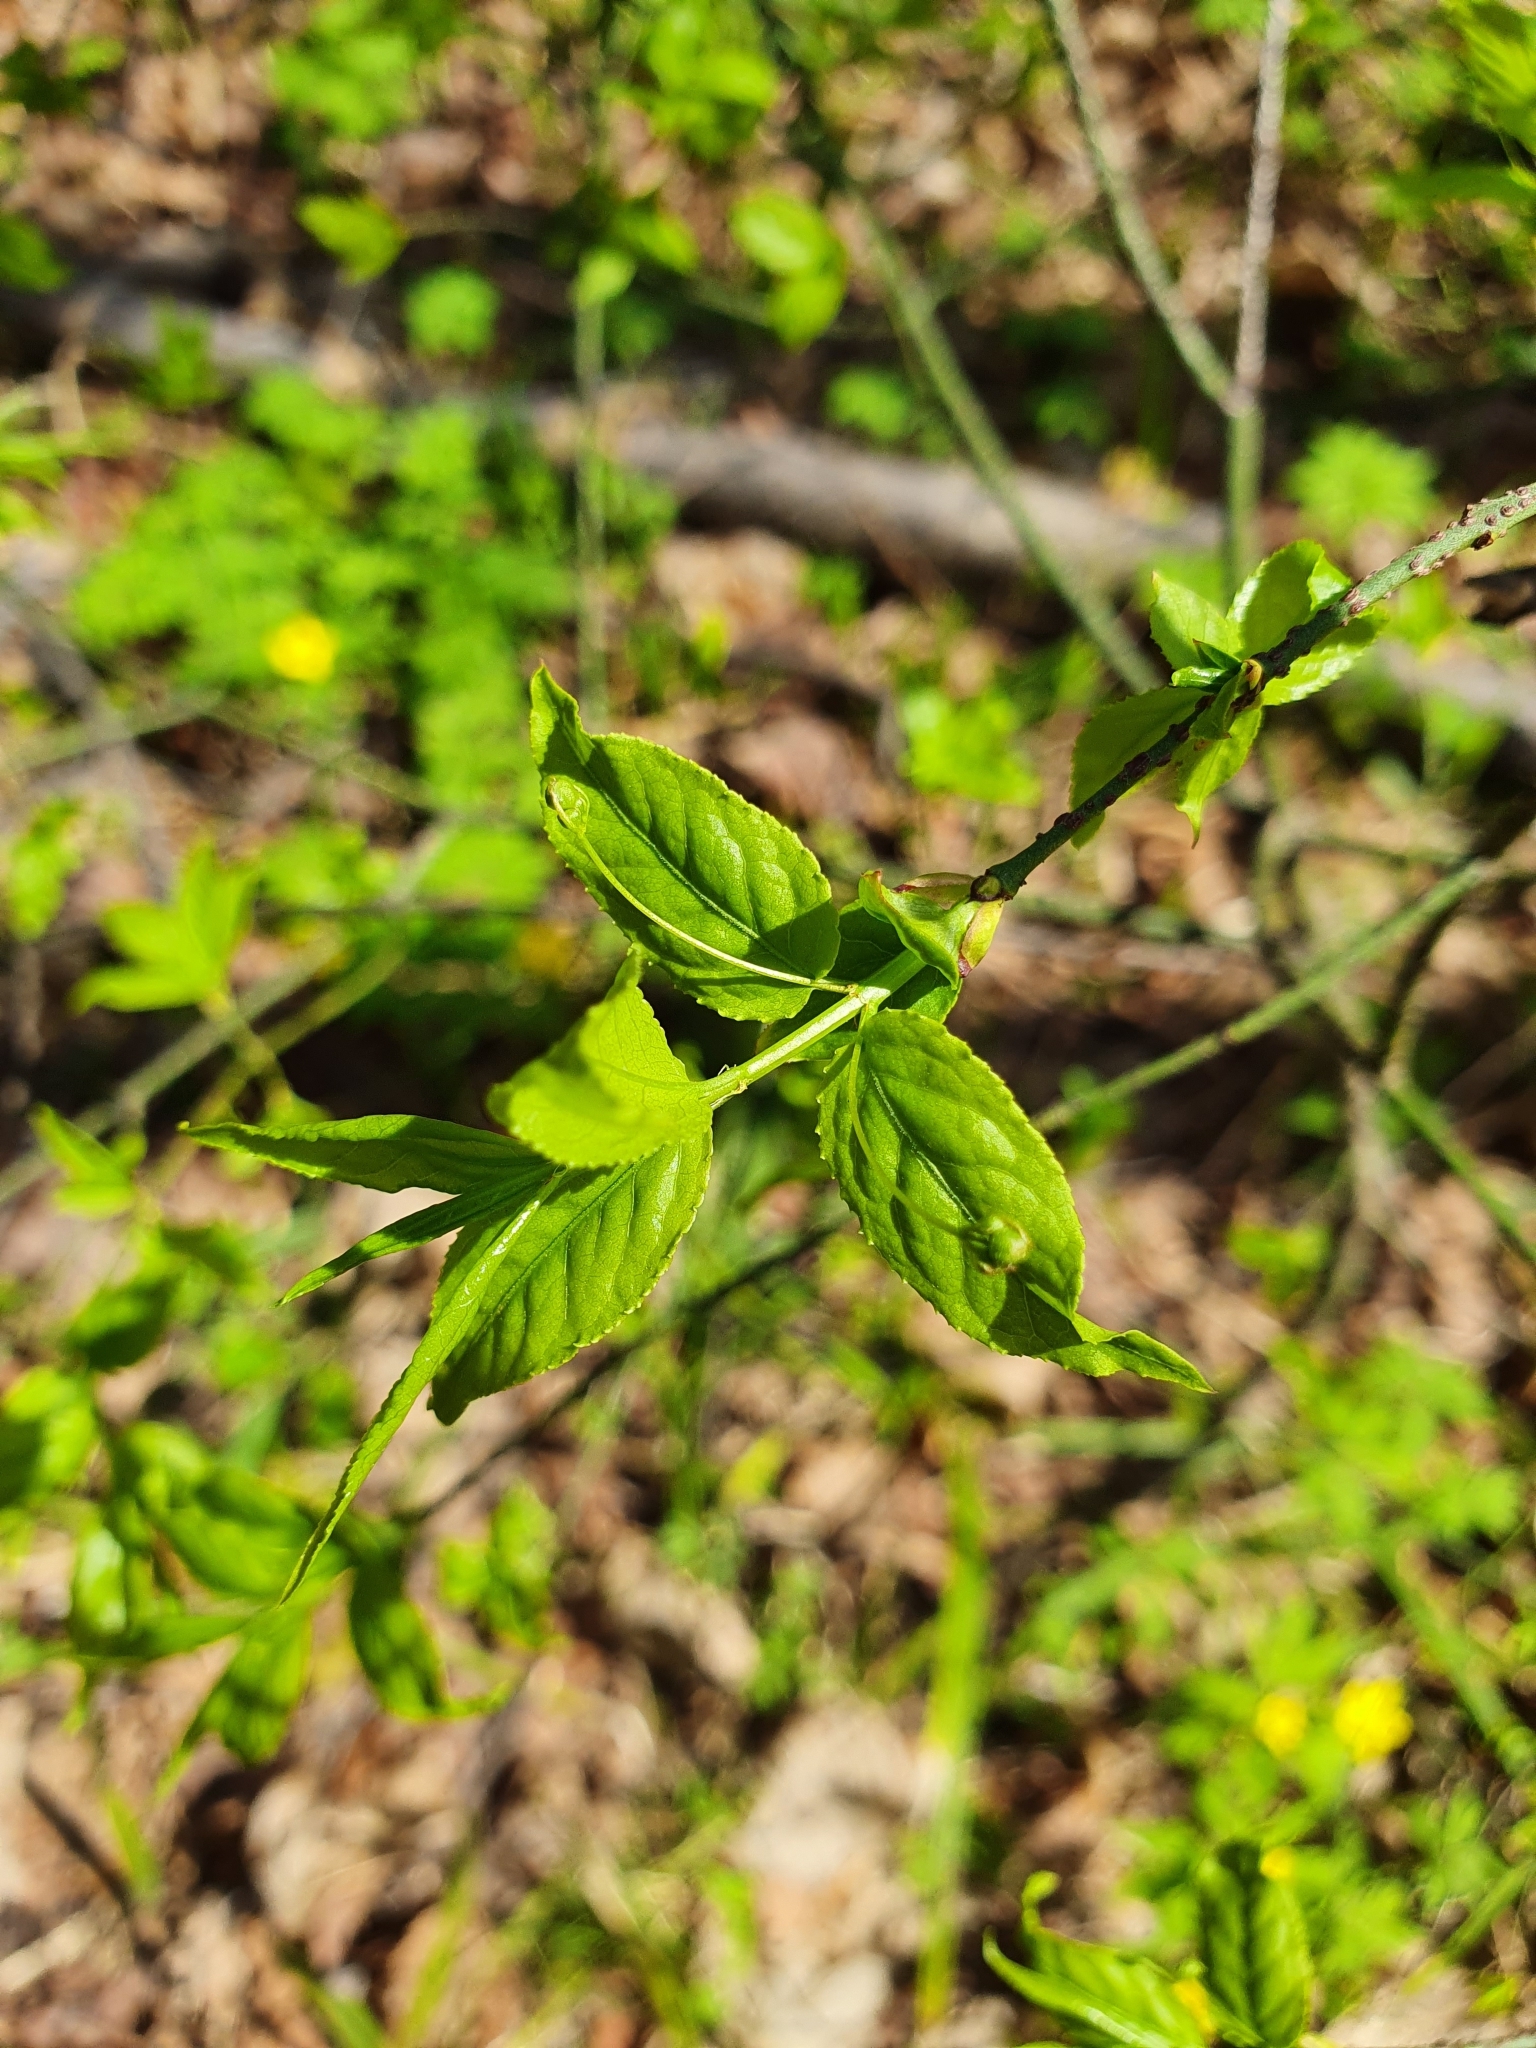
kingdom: Plantae
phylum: Tracheophyta
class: Magnoliopsida
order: Celastrales
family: Celastraceae
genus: Euonymus
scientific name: Euonymus verrucosus
